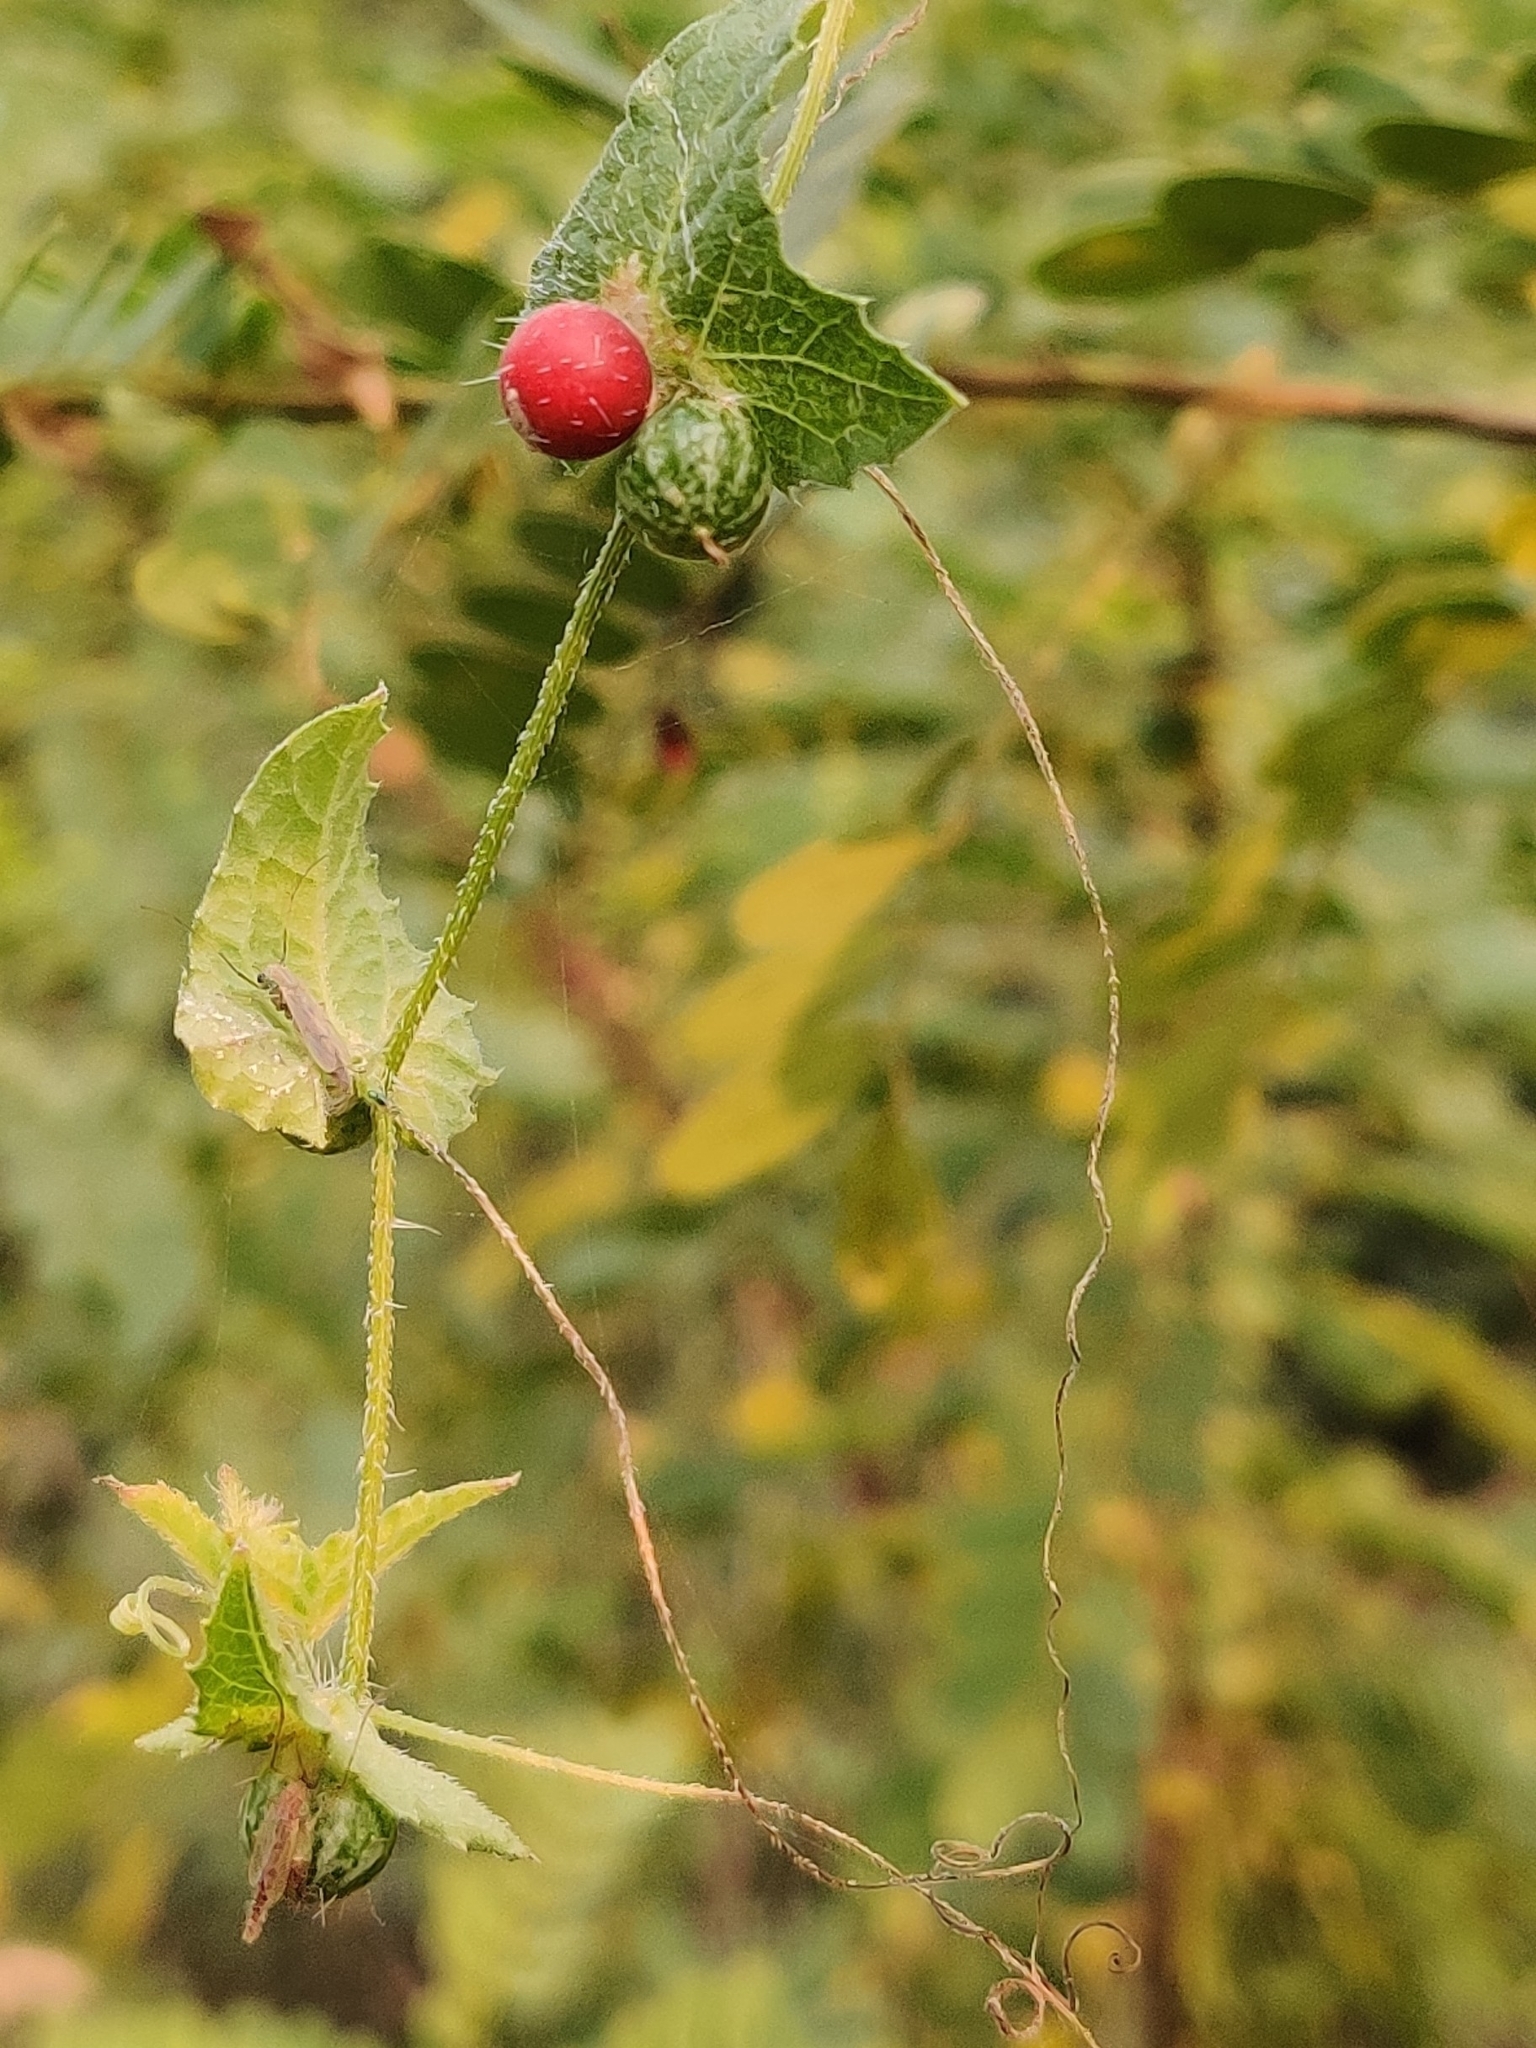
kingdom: Plantae
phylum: Tracheophyta
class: Magnoliopsida
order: Cucurbitales
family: Cucurbitaceae
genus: Cucumis
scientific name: Cucumis maderaspatanus
